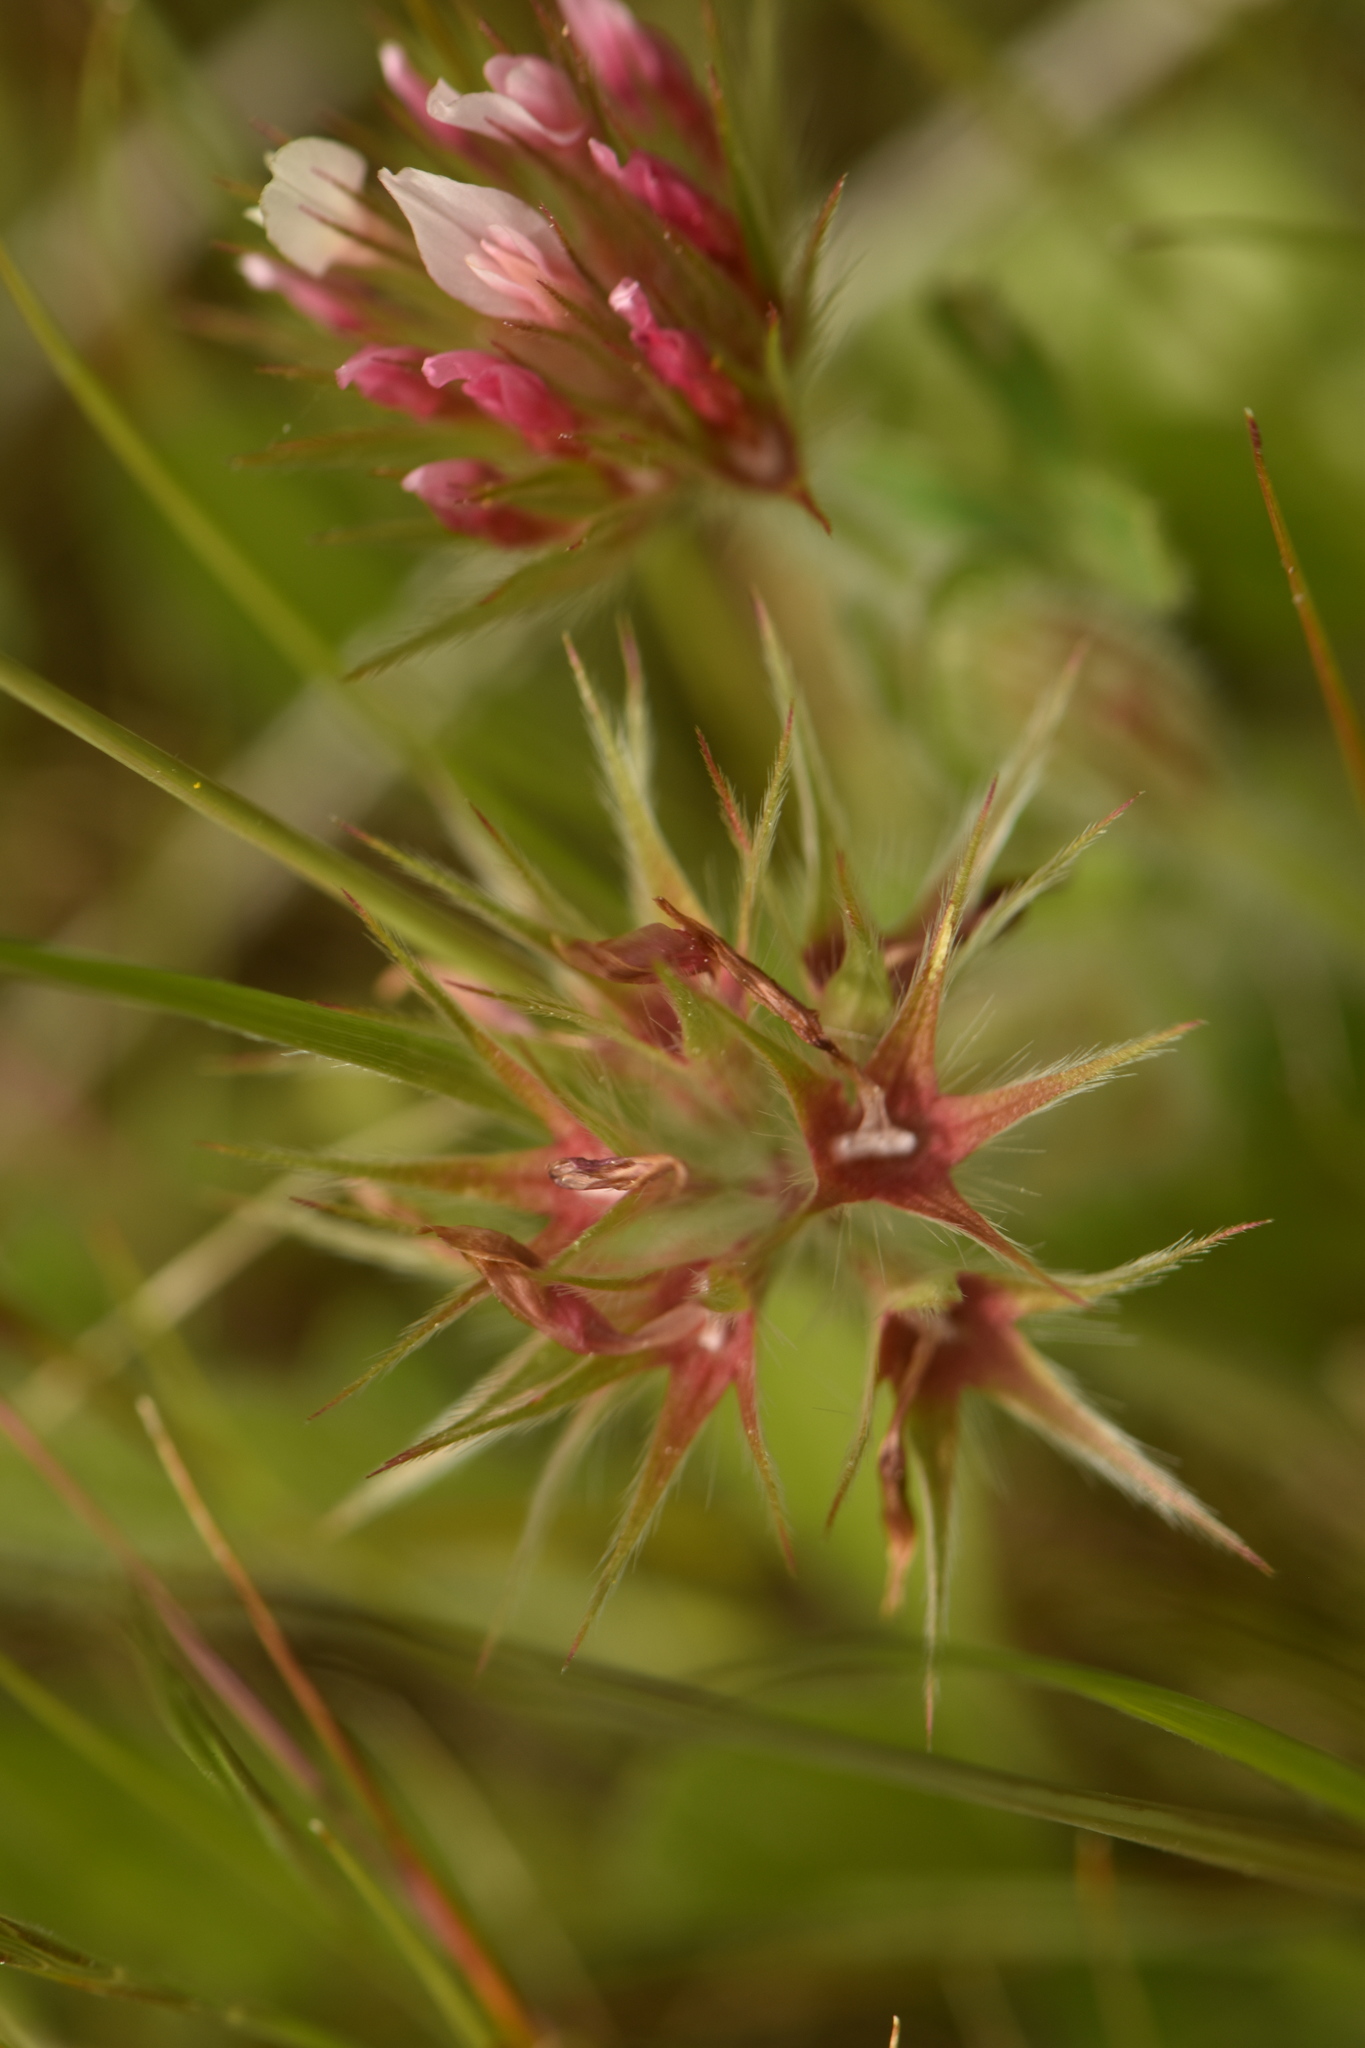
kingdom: Plantae
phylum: Tracheophyta
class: Magnoliopsida
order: Fabales
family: Fabaceae
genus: Trifolium
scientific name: Trifolium stellatum
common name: Starry clover
